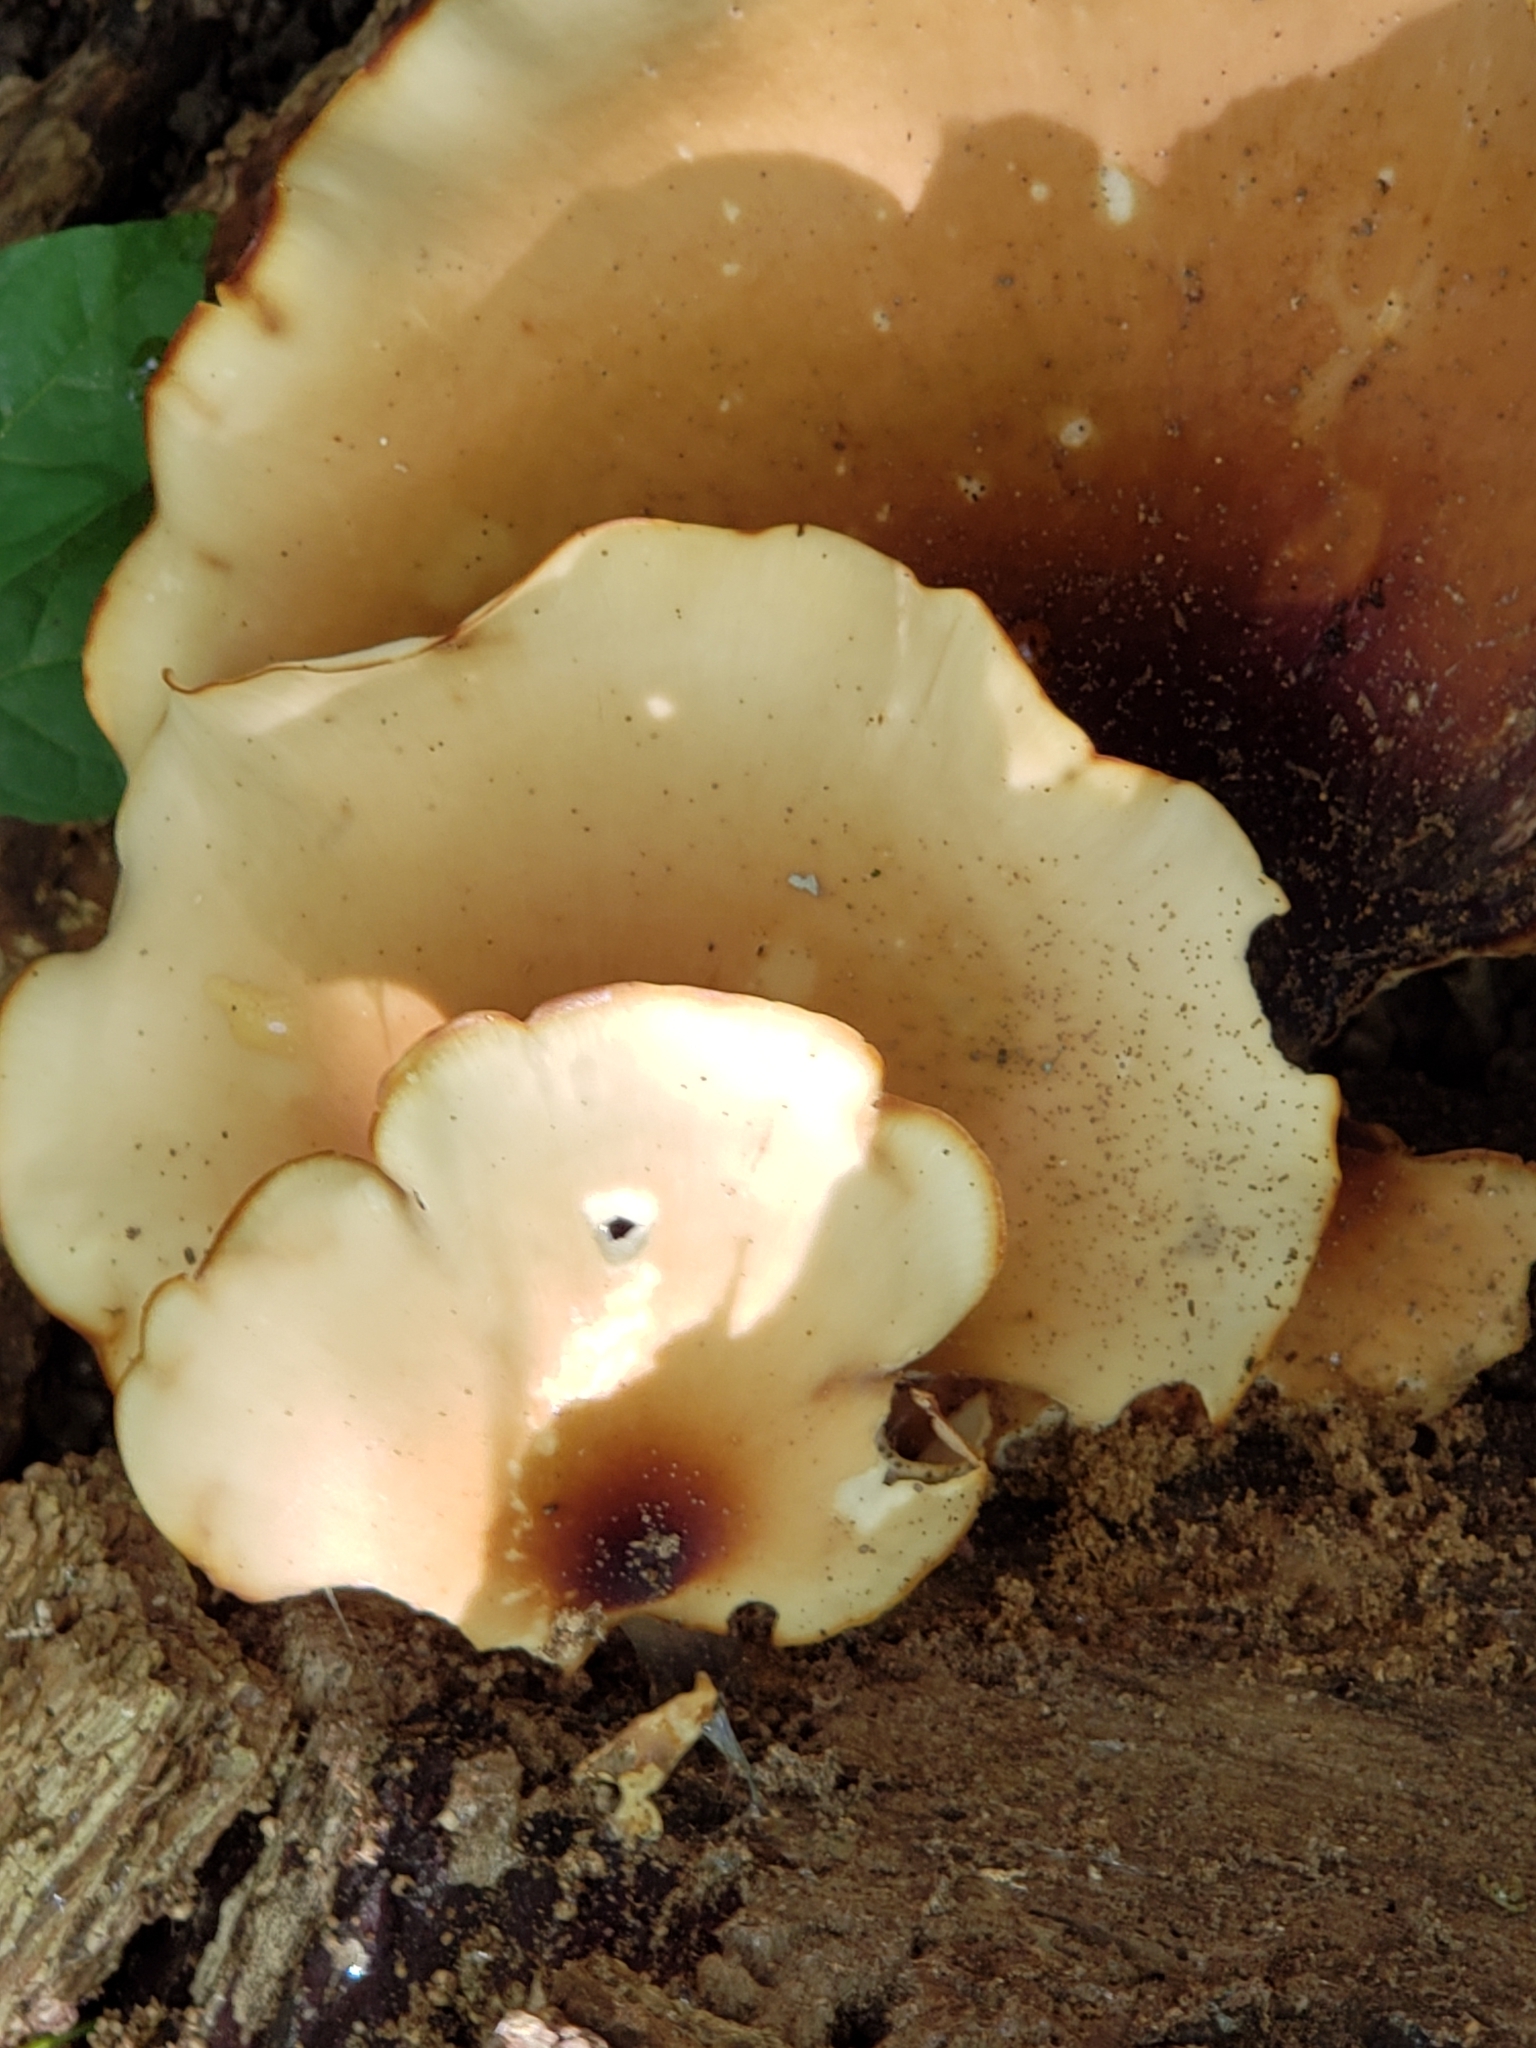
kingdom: Fungi
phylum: Basidiomycota
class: Agaricomycetes
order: Polyporales
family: Polyporaceae
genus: Picipes
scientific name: Picipes badius
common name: Bay polypore
